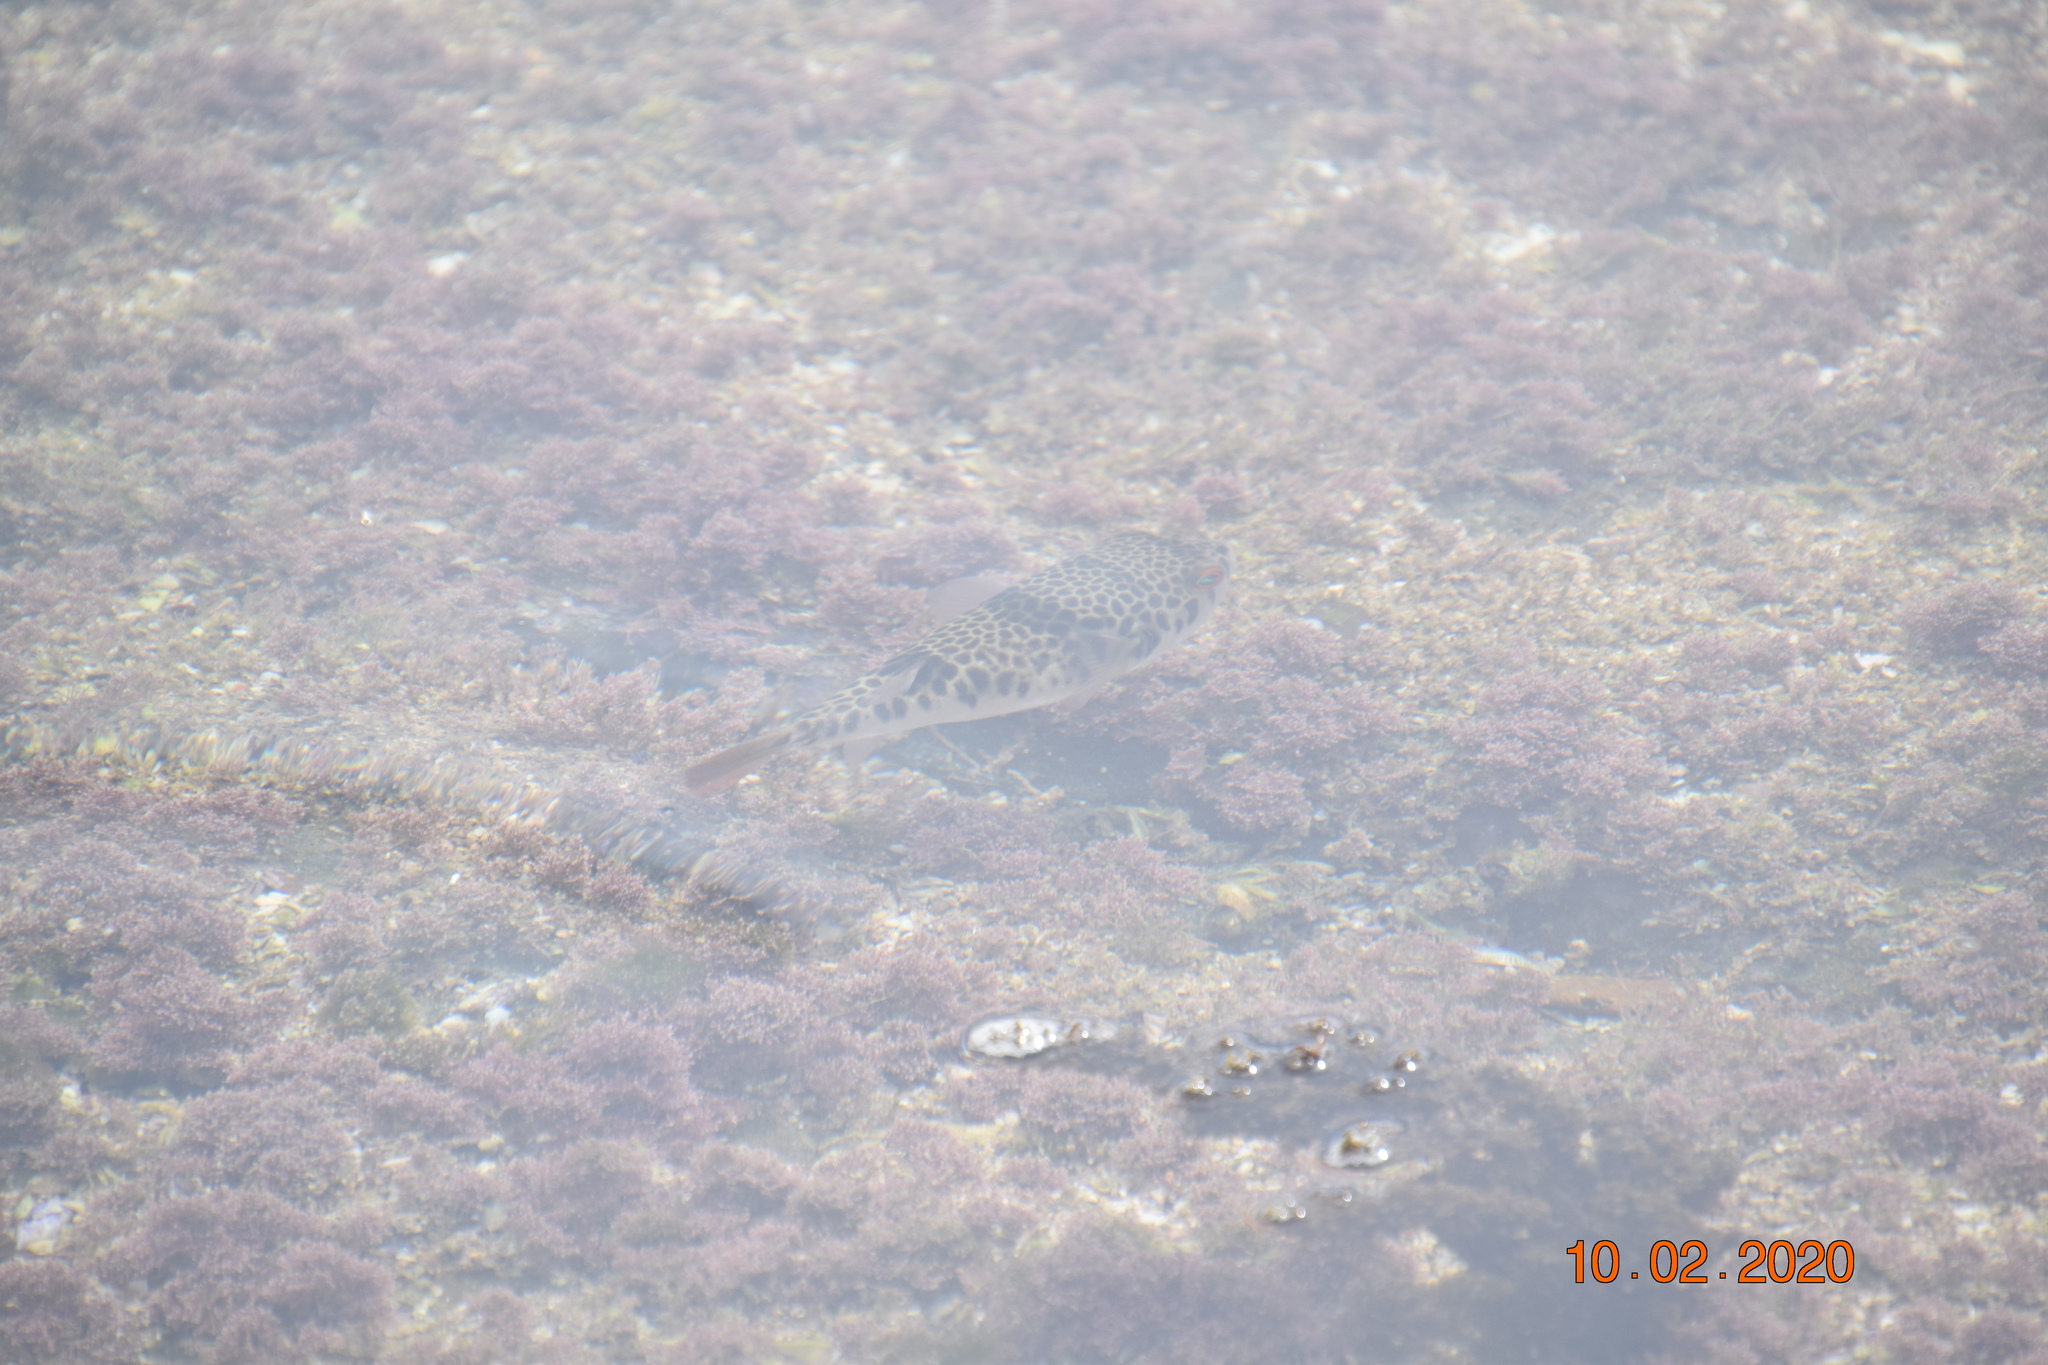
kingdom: Animalia
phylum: Chordata
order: Tetraodontiformes
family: Tetraodontidae
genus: Tetractenos
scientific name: Tetractenos glaber
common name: Smooth toadfish
